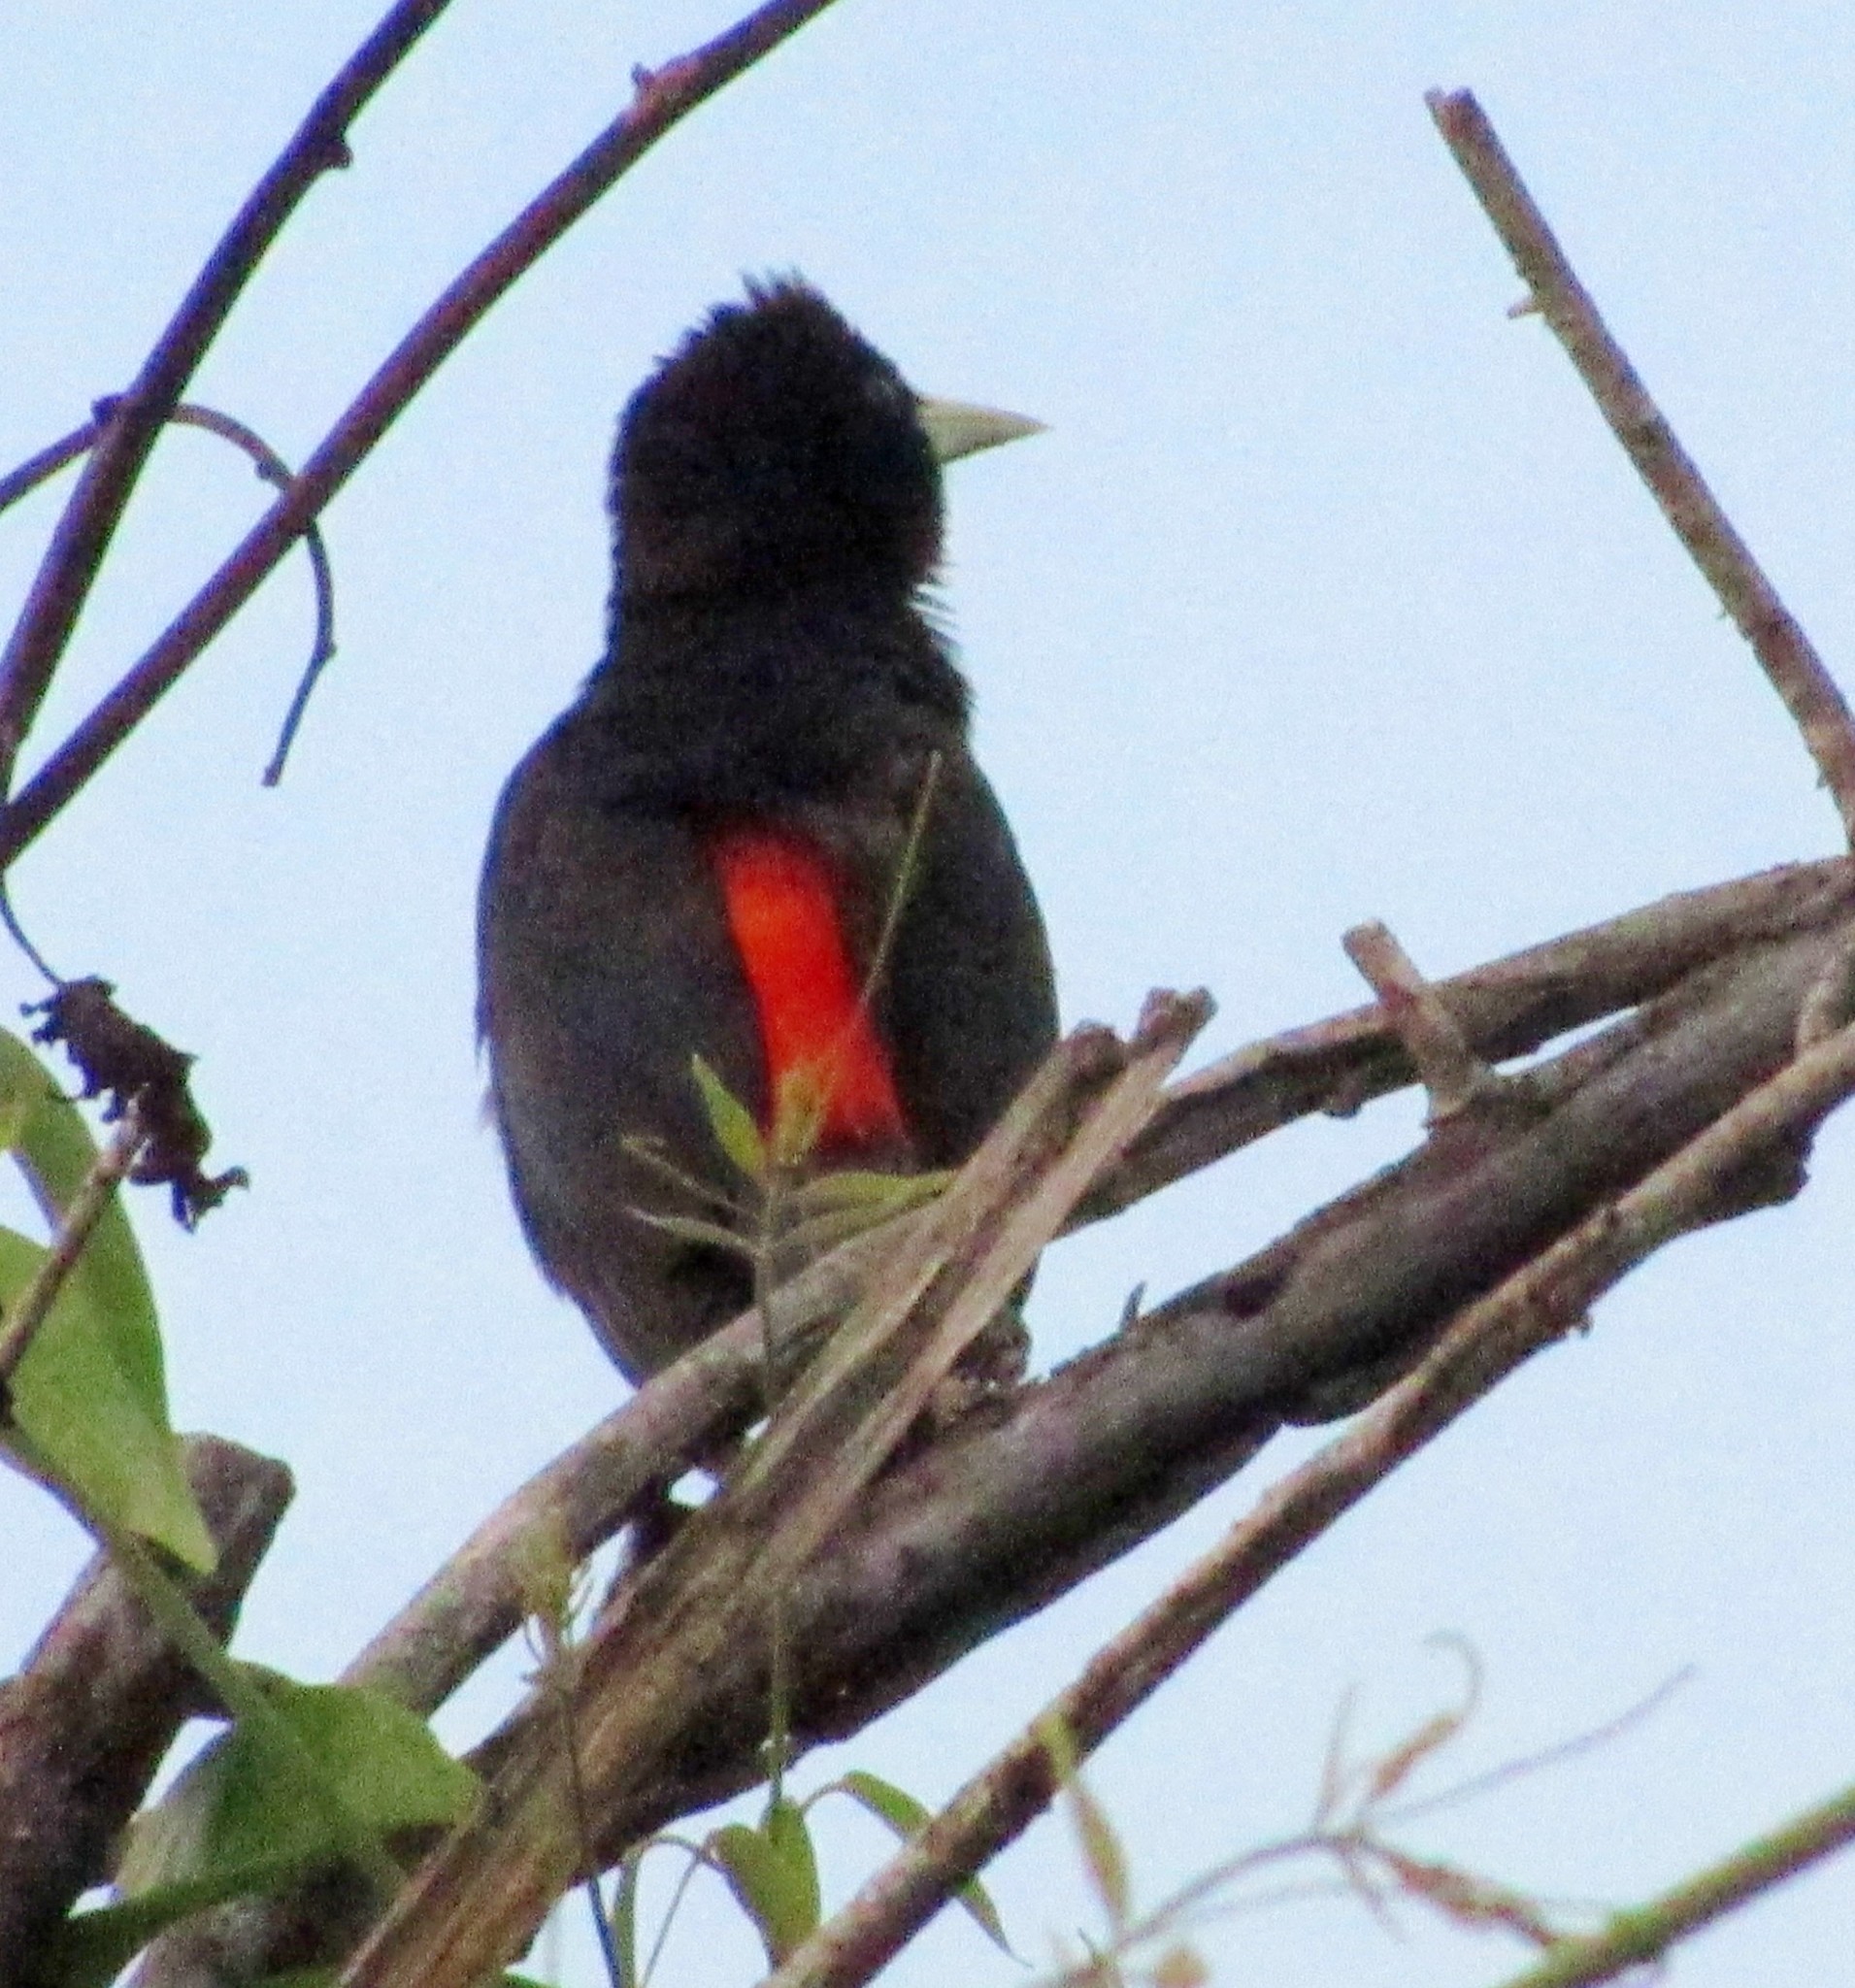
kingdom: Animalia
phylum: Chordata
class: Aves
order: Passeriformes
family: Icteridae
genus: Cacicus
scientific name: Cacicus haemorrhous
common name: Red-rumped cacique
